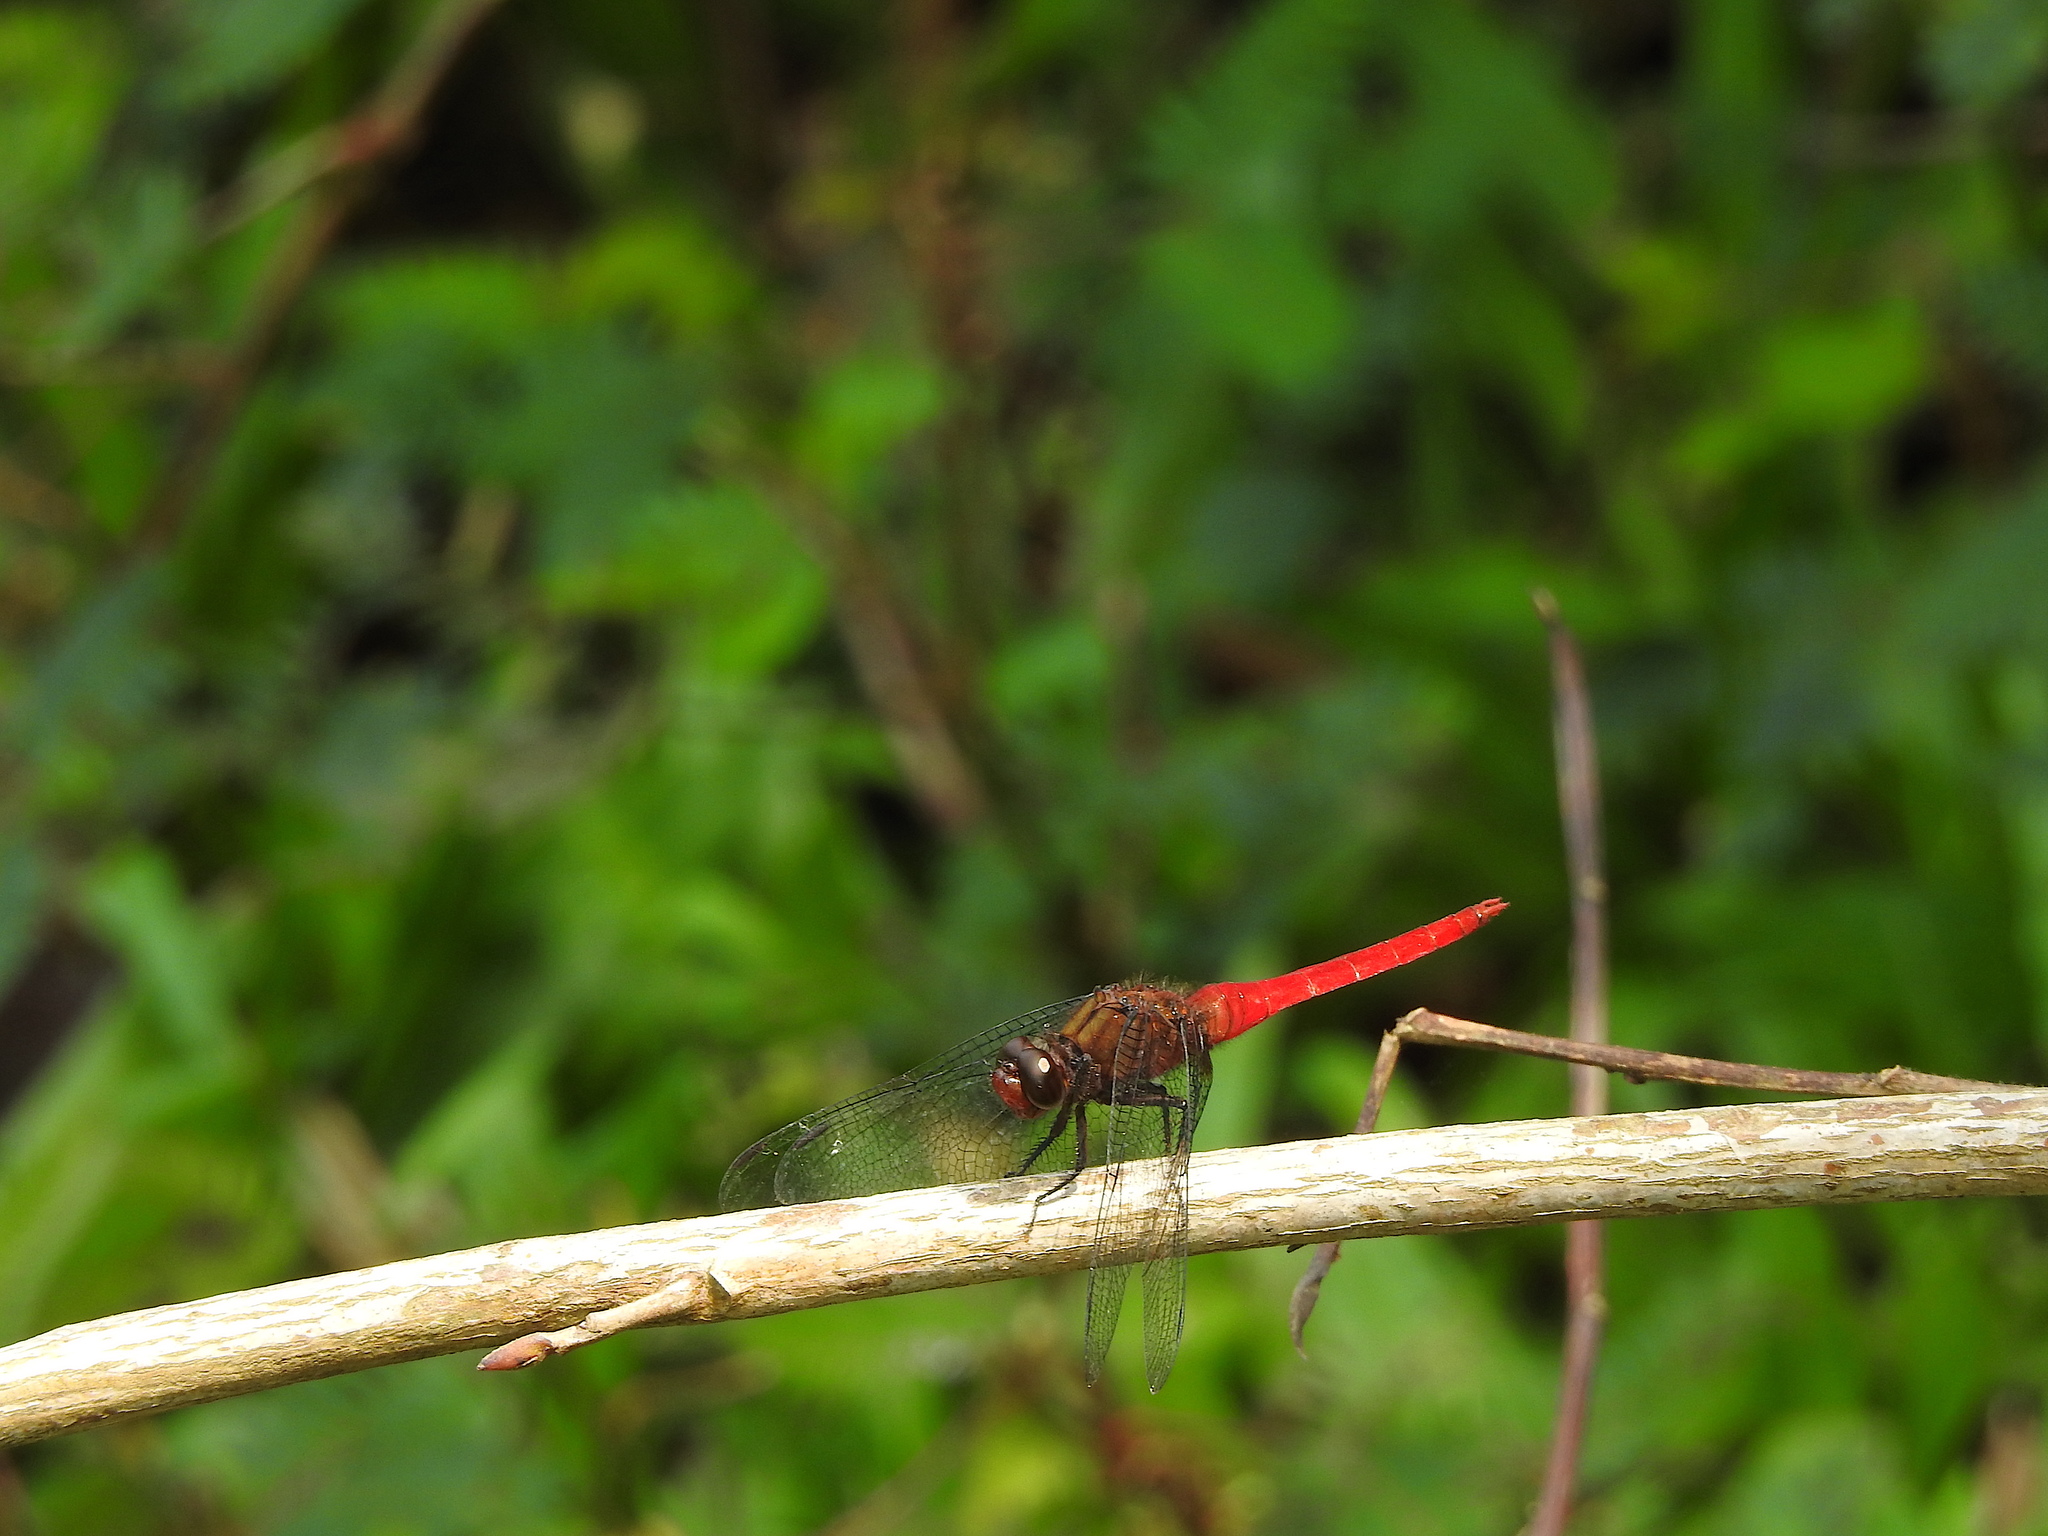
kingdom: Animalia
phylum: Arthropoda
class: Insecta
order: Odonata
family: Libellulidae
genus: Orthetrum
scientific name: Orthetrum chrysis
